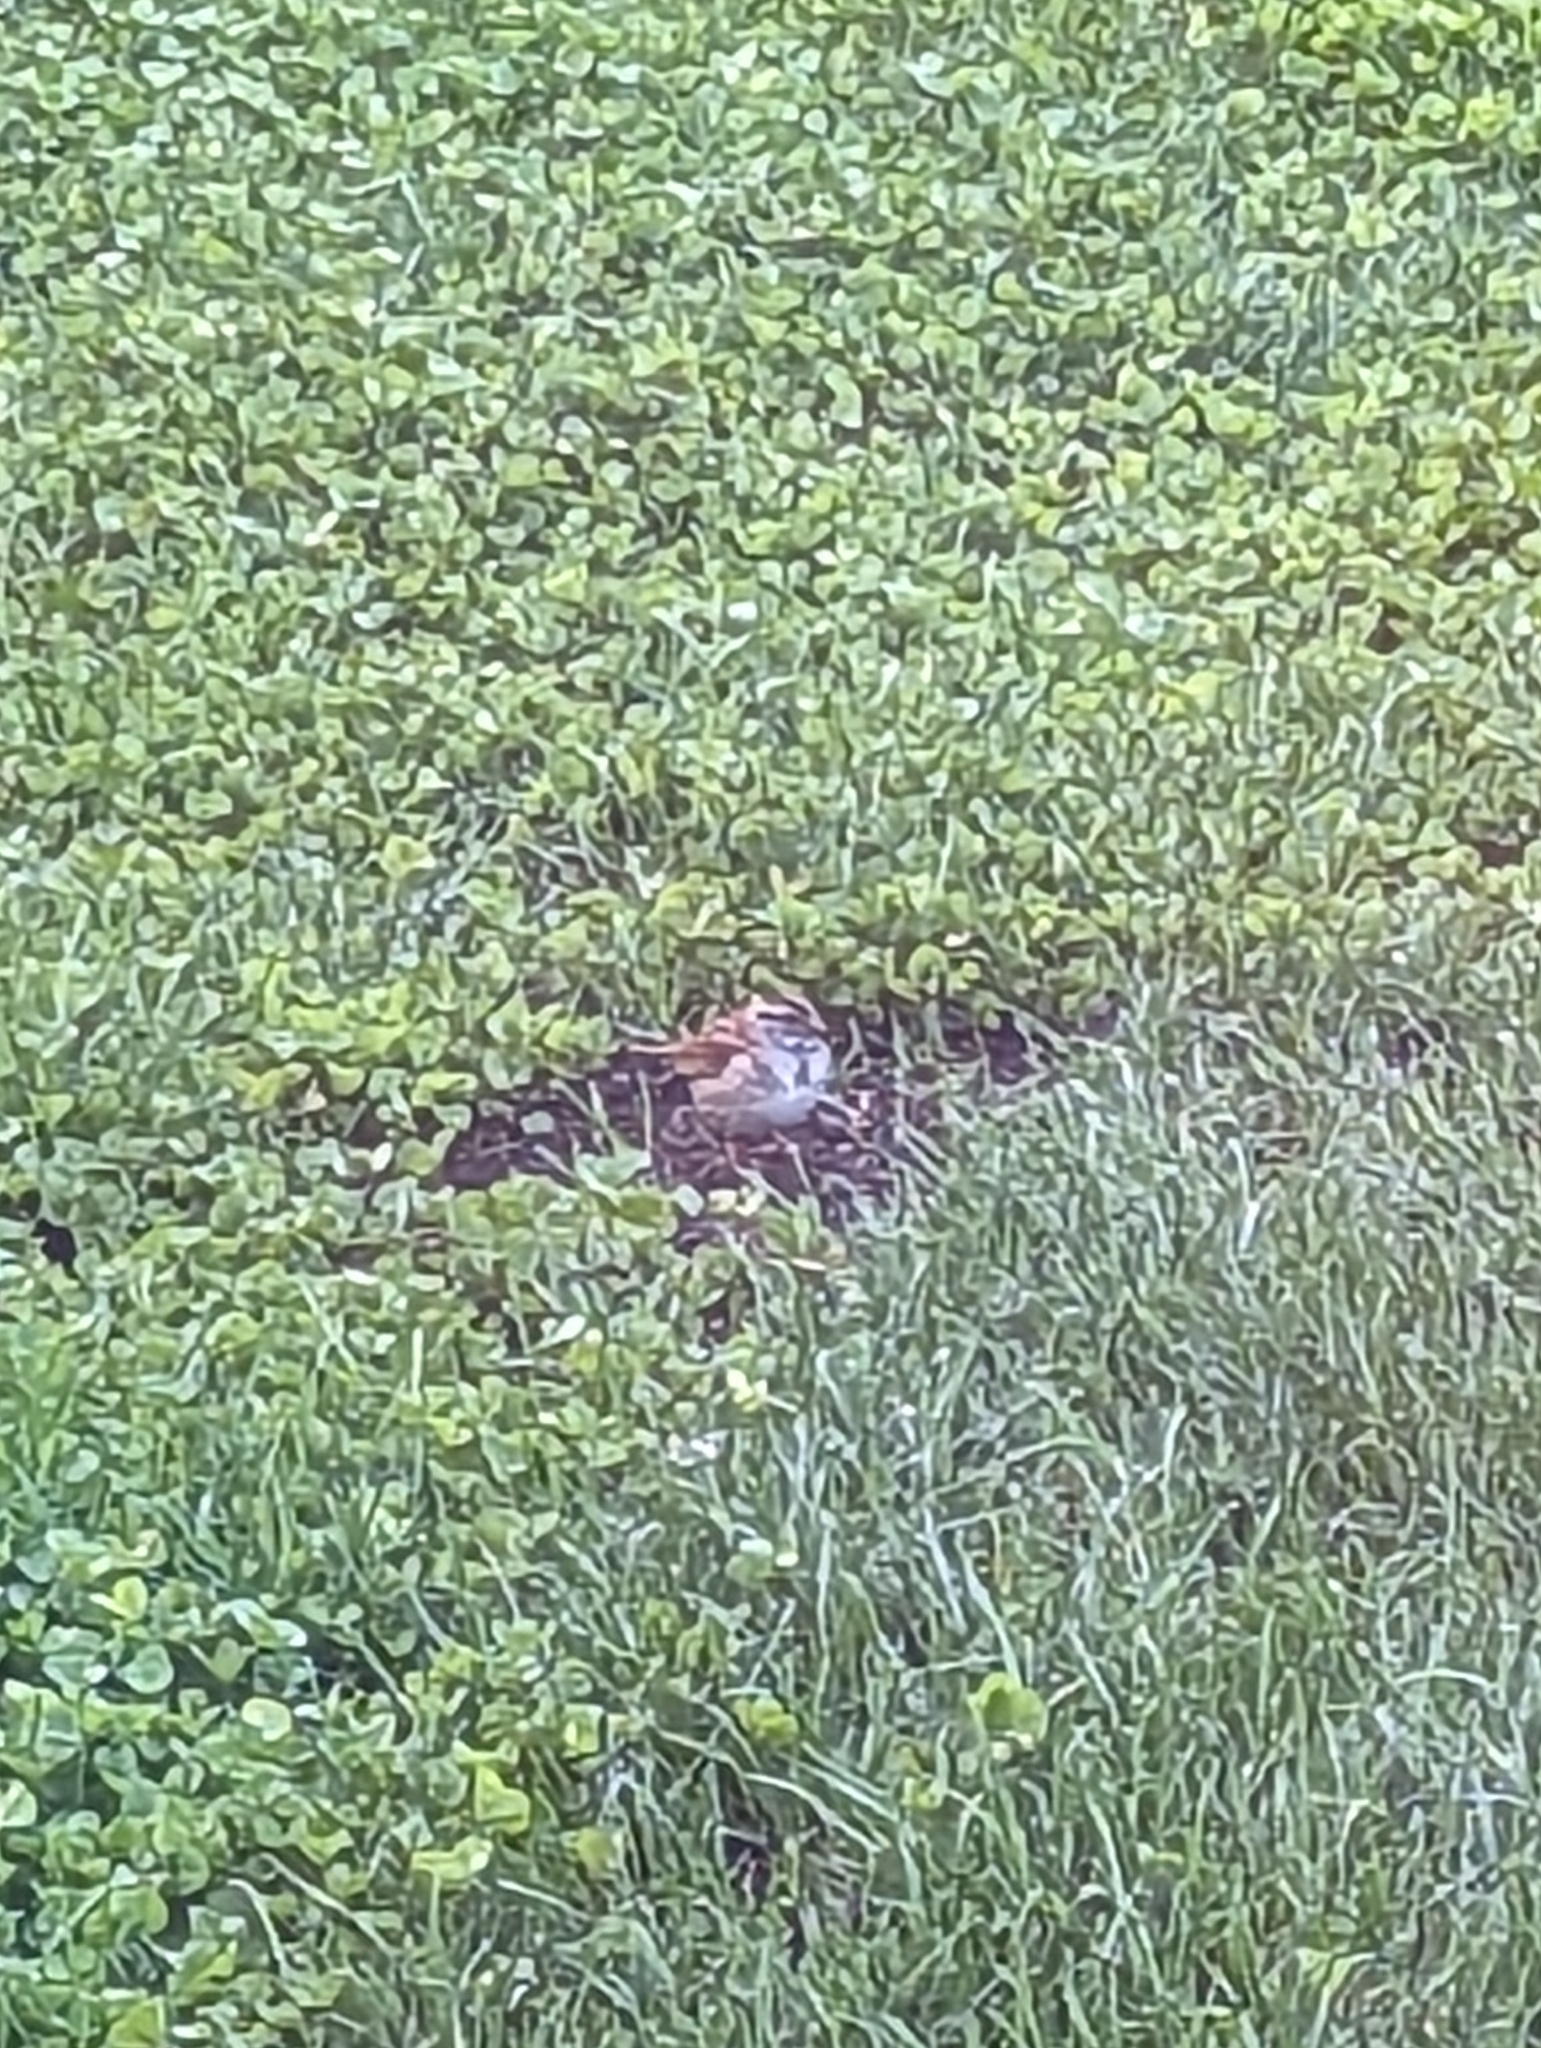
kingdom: Animalia
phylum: Chordata
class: Aves
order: Passeriformes
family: Passerellidae
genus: Zonotrichia
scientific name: Zonotrichia albicollis
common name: White-throated sparrow
